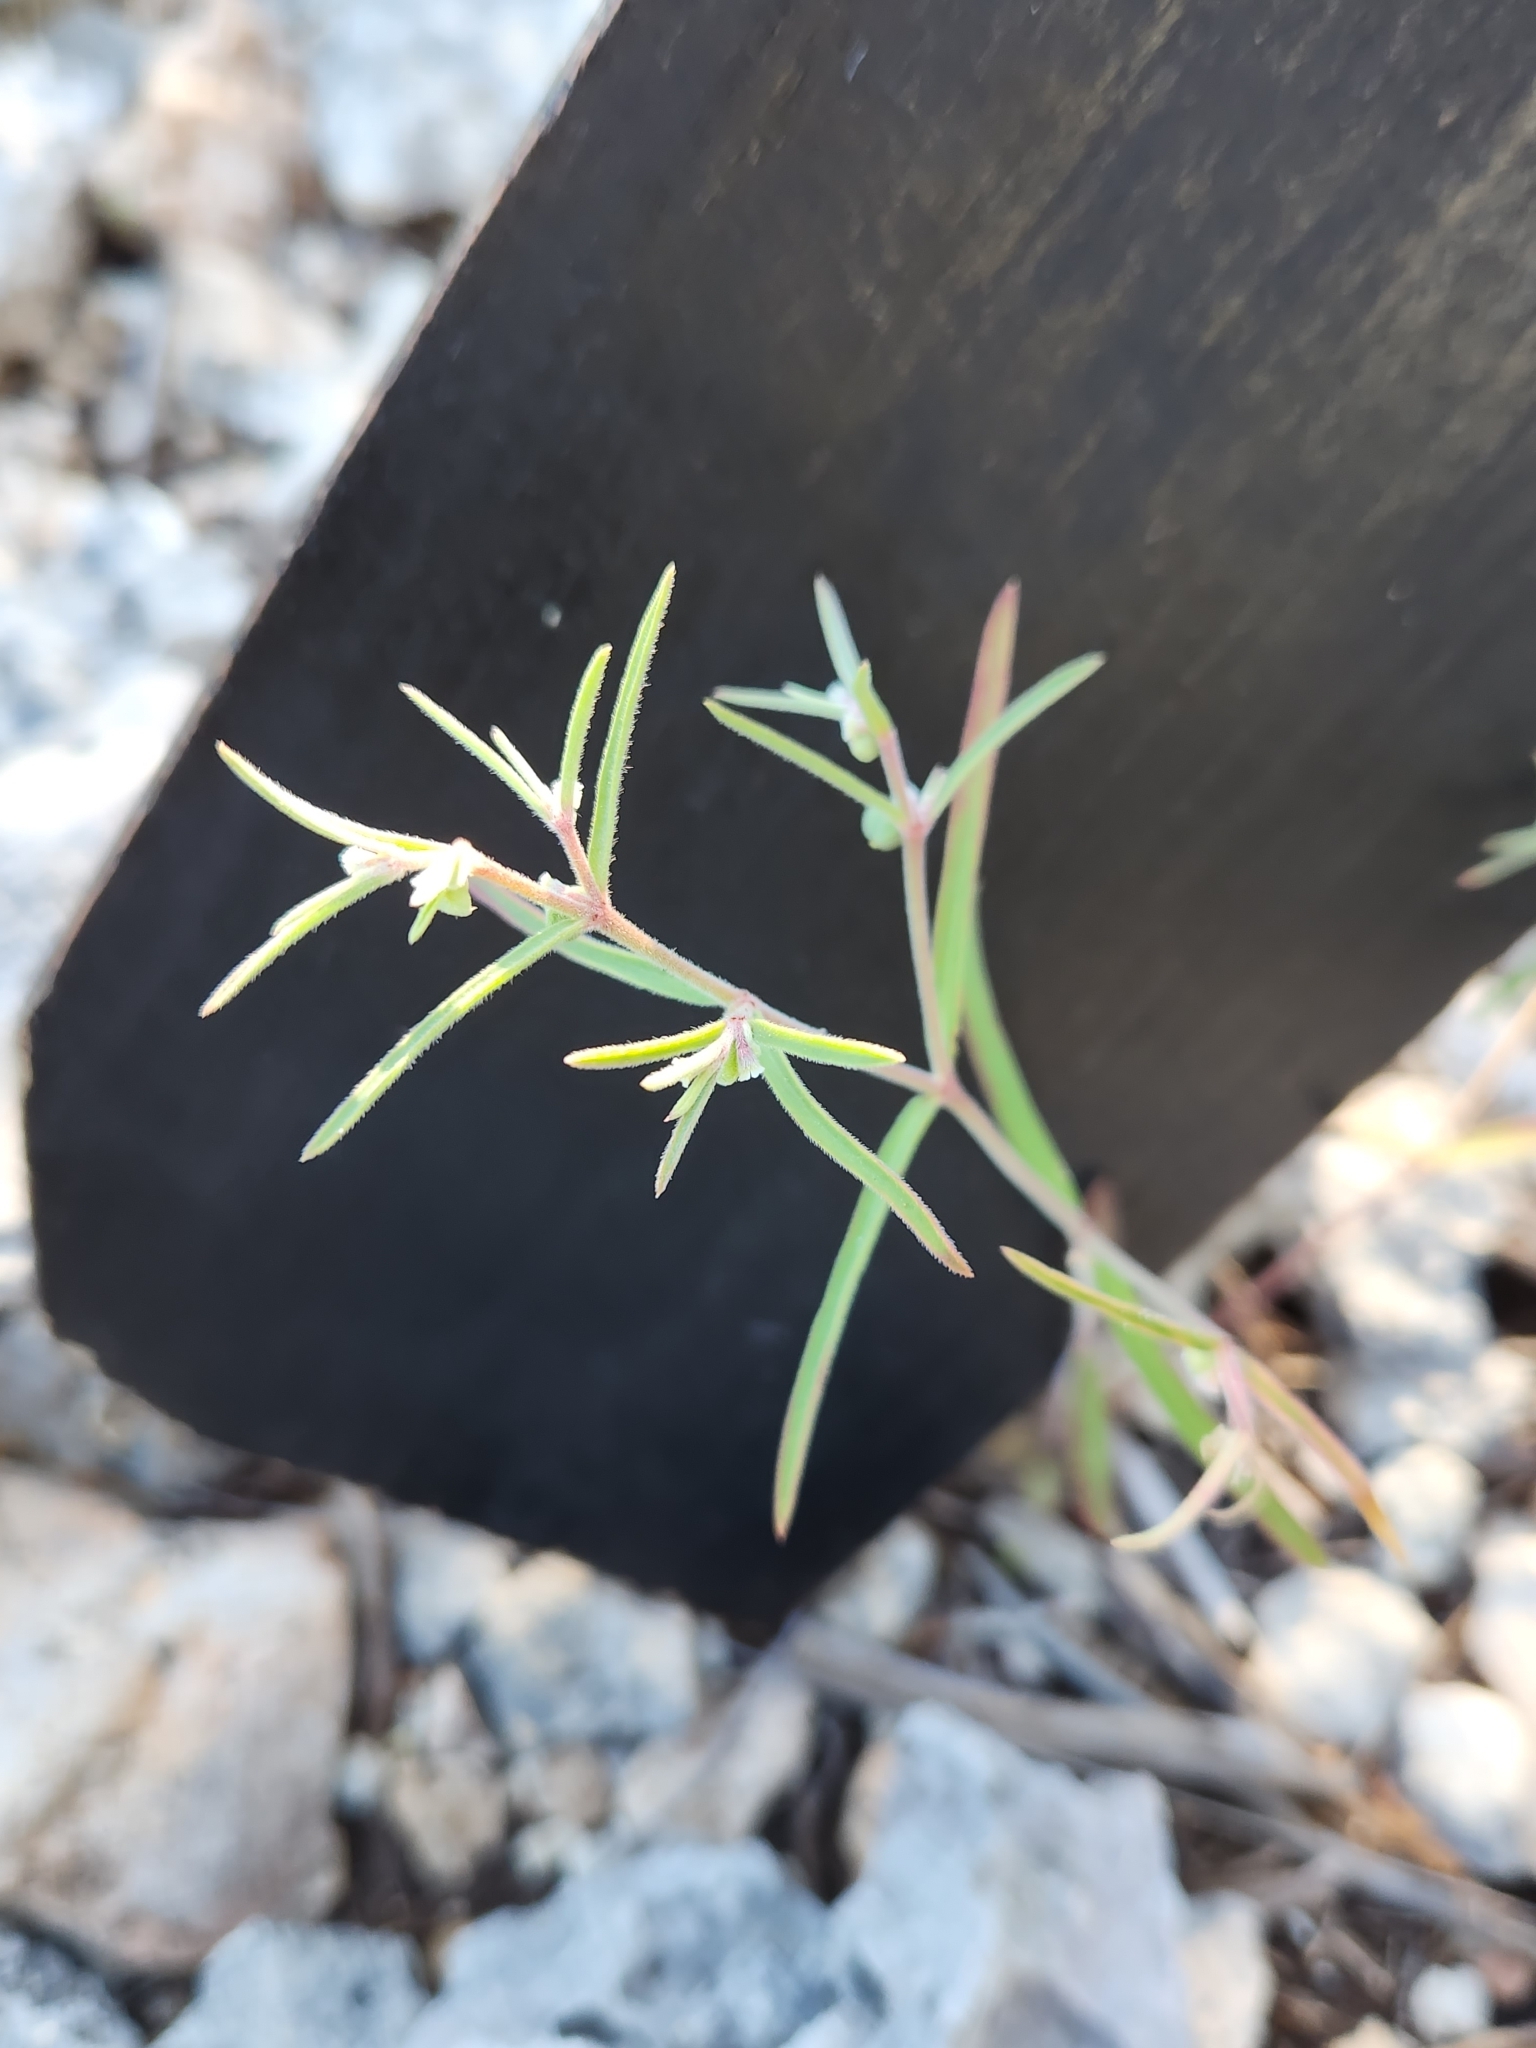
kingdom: Plantae
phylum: Tracheophyta
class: Magnoliopsida
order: Malpighiales
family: Euphorbiaceae
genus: Euphorbia
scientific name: Euphorbia angusta
